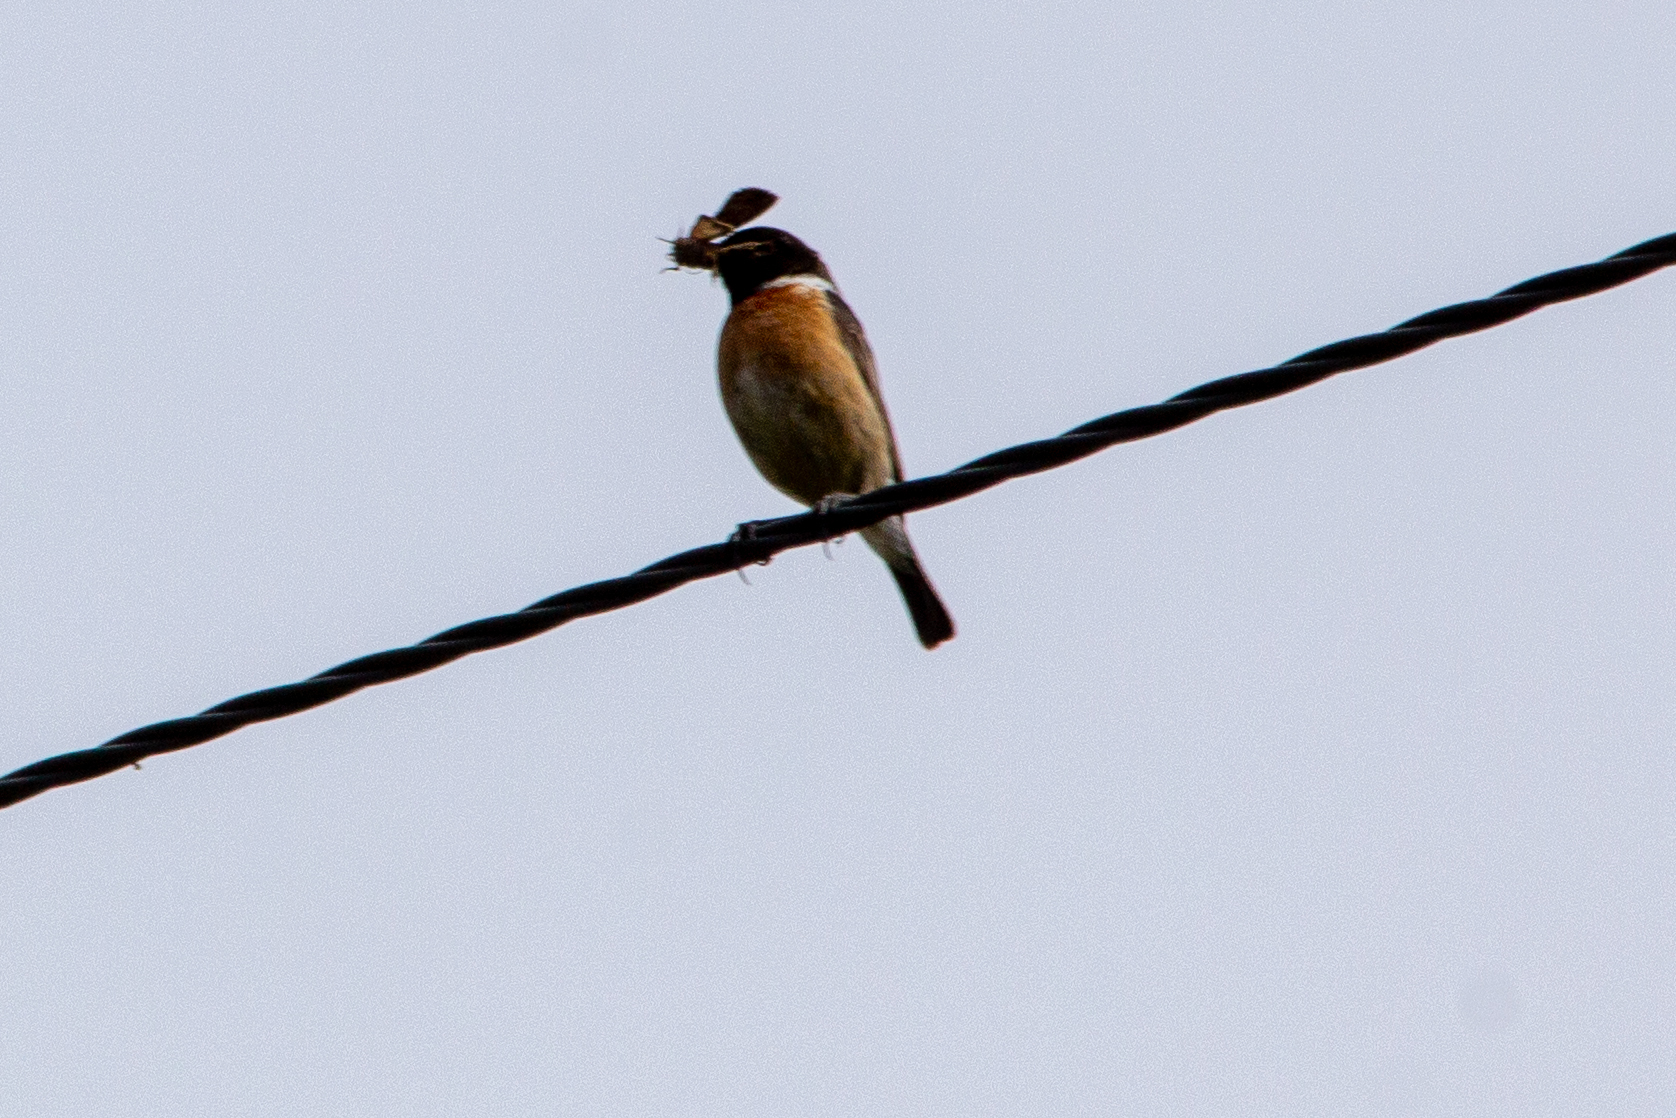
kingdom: Animalia
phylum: Chordata
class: Aves
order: Passeriformes
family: Muscicapidae
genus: Saxicola
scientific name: Saxicola rubicola
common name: European stonechat
